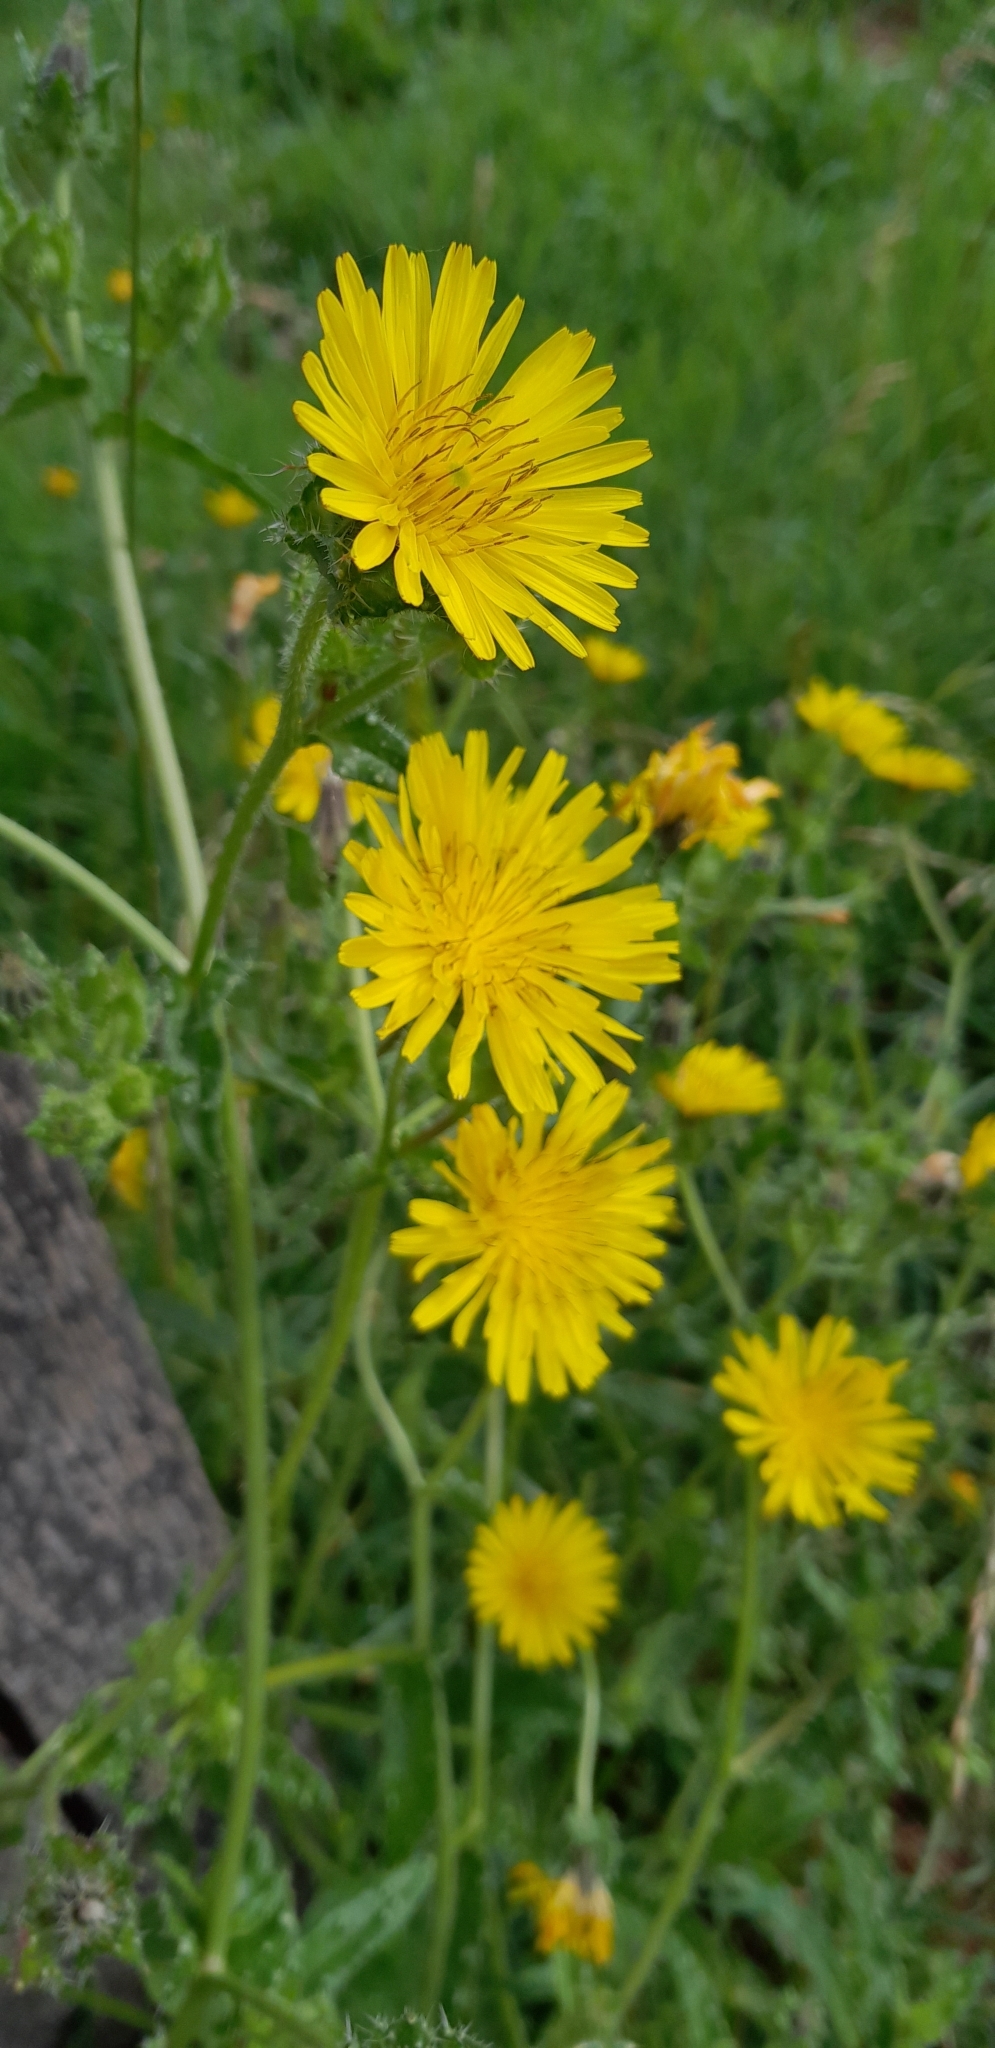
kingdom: Plantae
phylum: Tracheophyta
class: Magnoliopsida
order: Asterales
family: Asteraceae
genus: Helminthotheca
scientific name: Helminthotheca echioides
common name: Ox-tongue
